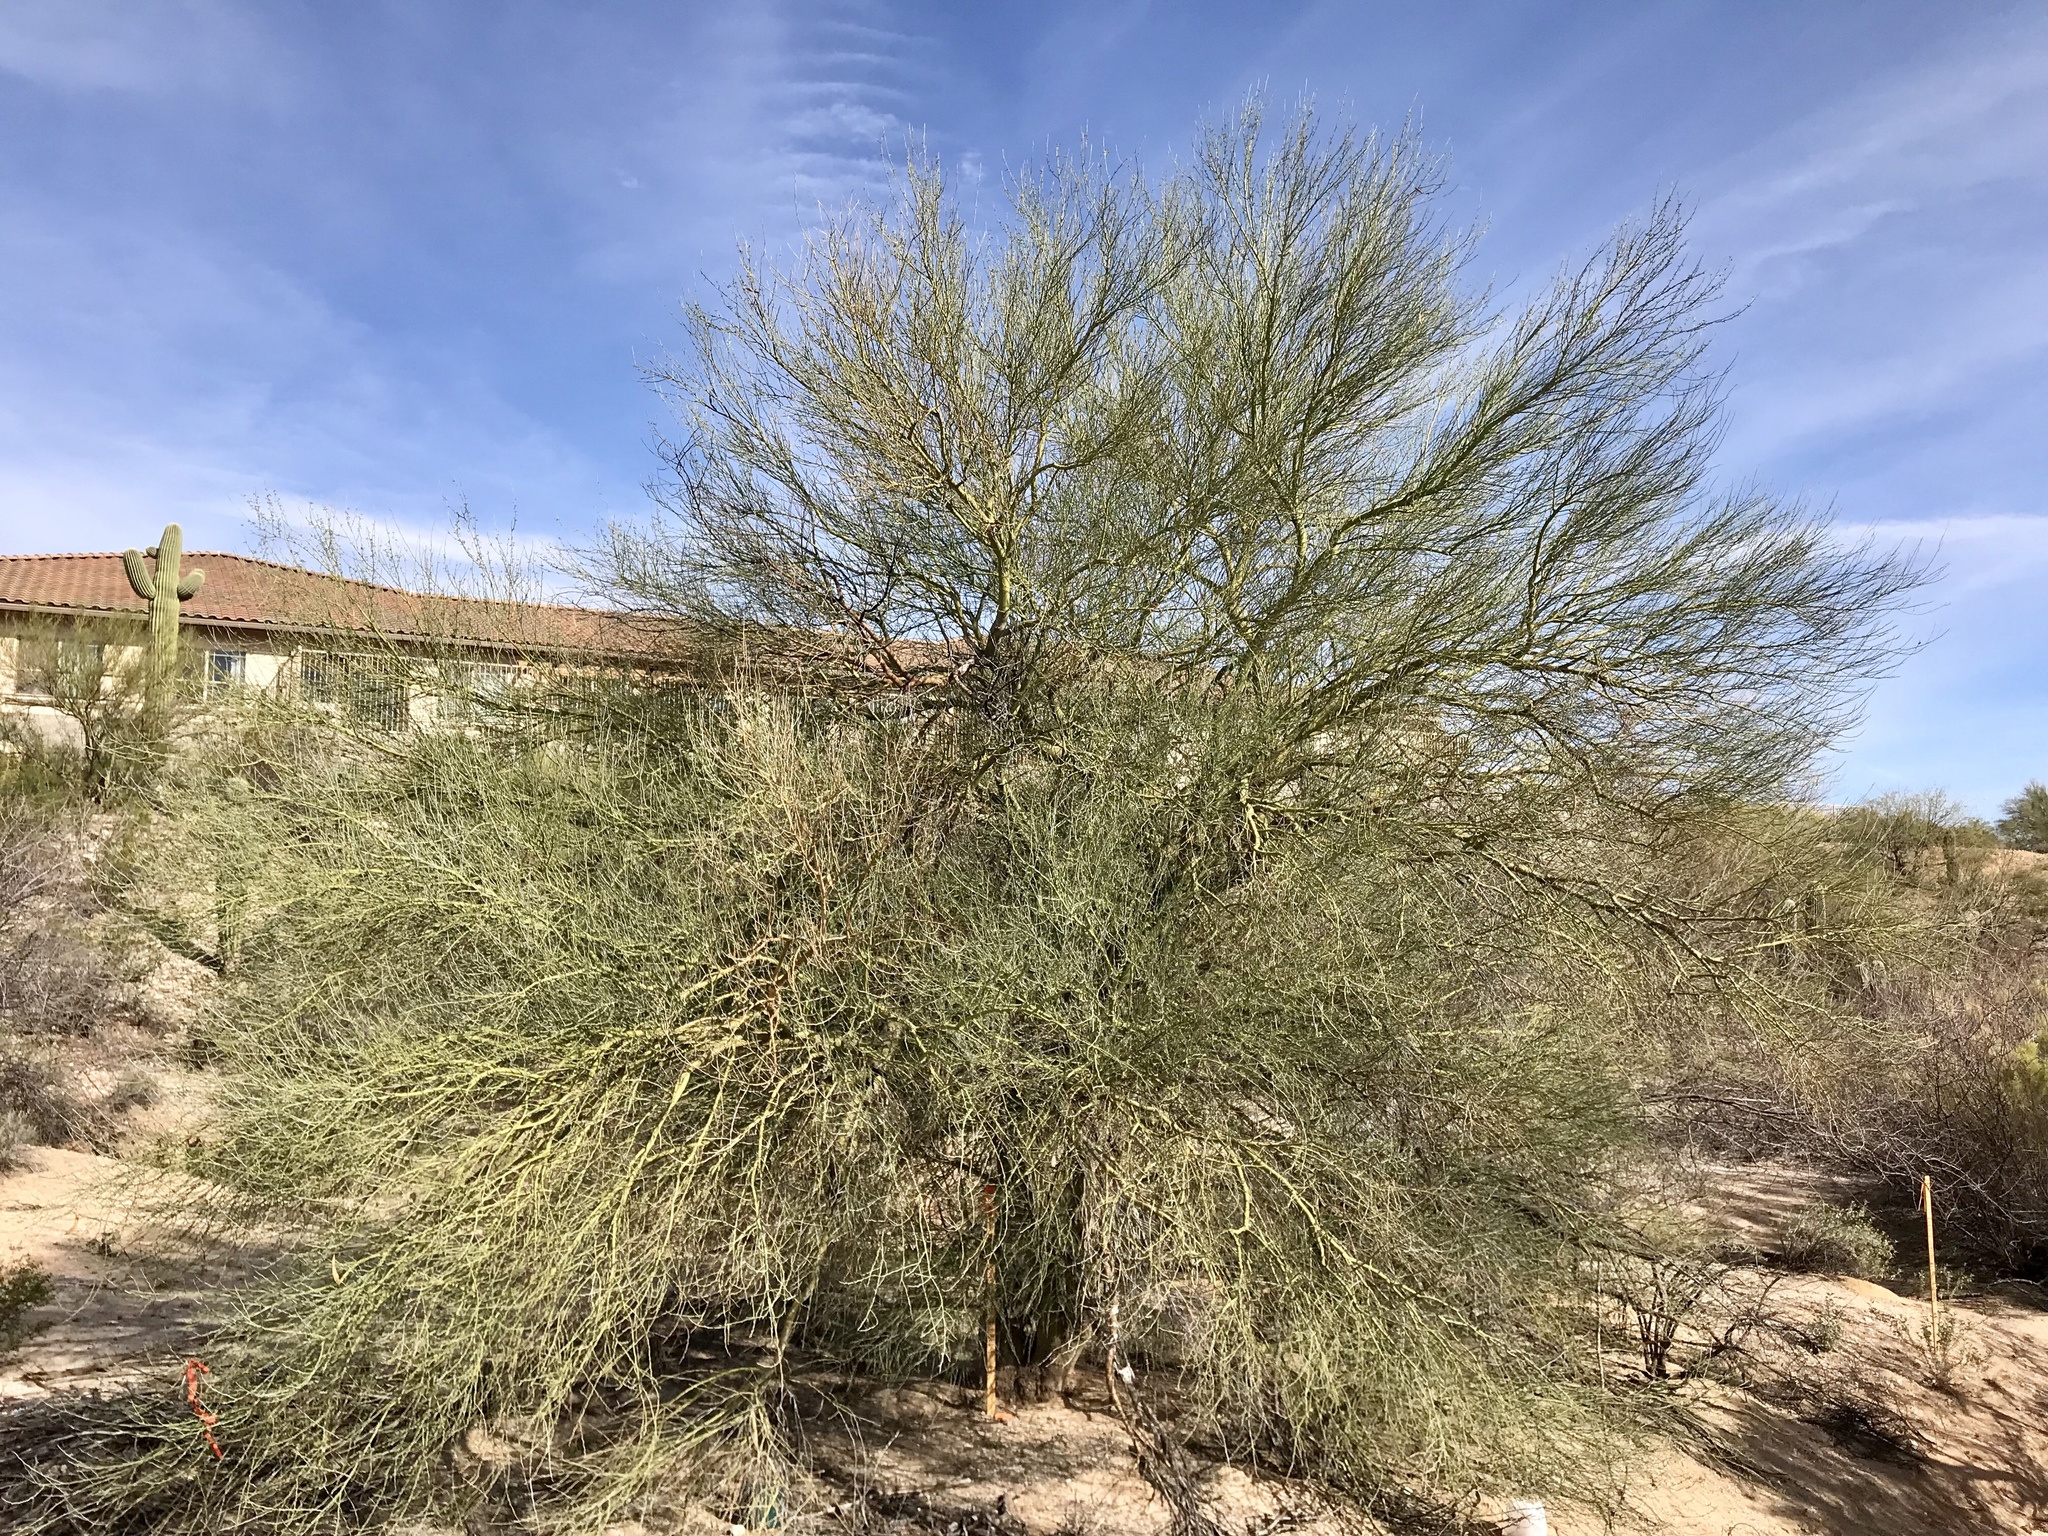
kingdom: Plantae
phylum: Tracheophyta
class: Magnoliopsida
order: Fabales
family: Fabaceae
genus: Parkinsonia
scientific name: Parkinsonia florida
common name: Blue paloverde
